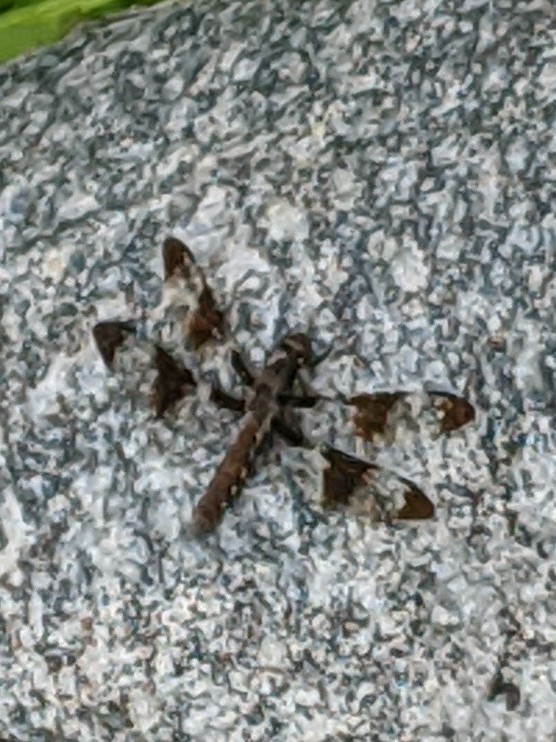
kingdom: Animalia
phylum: Arthropoda
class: Insecta
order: Odonata
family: Libellulidae
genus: Plathemis
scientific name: Plathemis lydia
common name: Common whitetail
